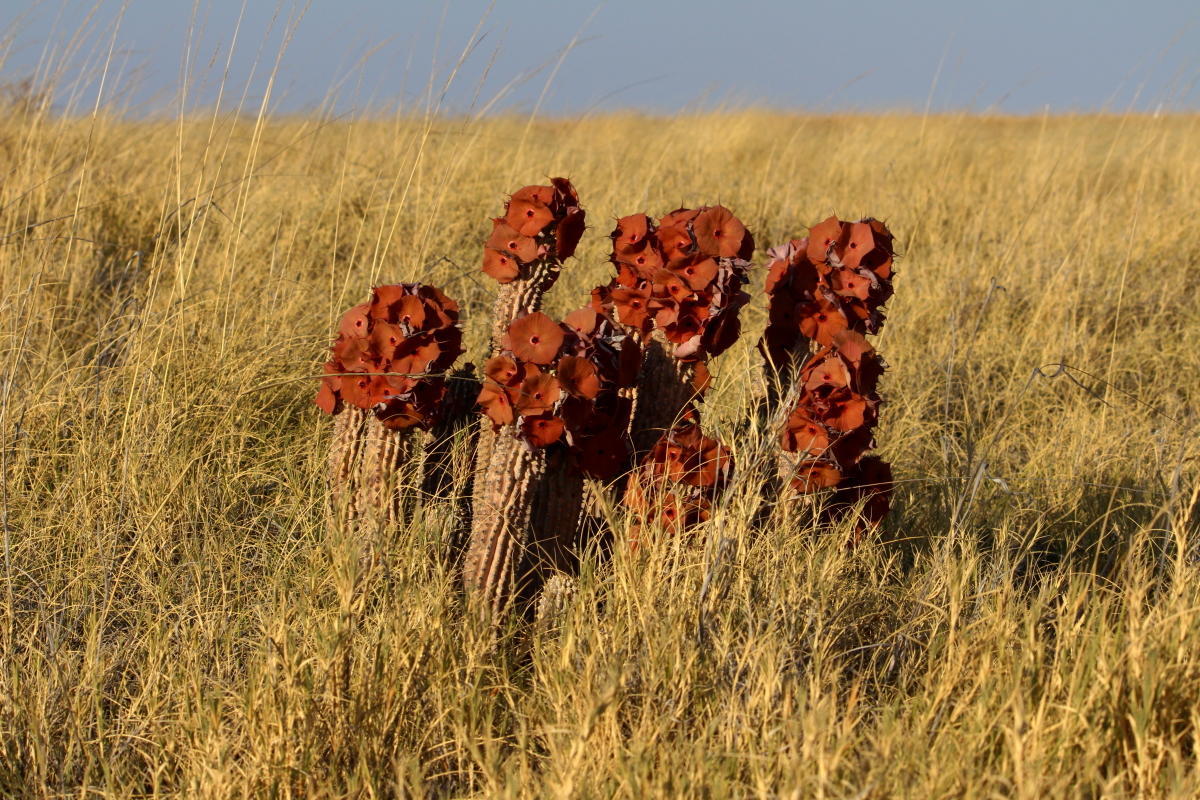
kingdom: Plantae
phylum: Tracheophyta
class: Magnoliopsida
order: Gentianales
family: Apocynaceae
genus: Ceropegia
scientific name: Ceropegia currorii
